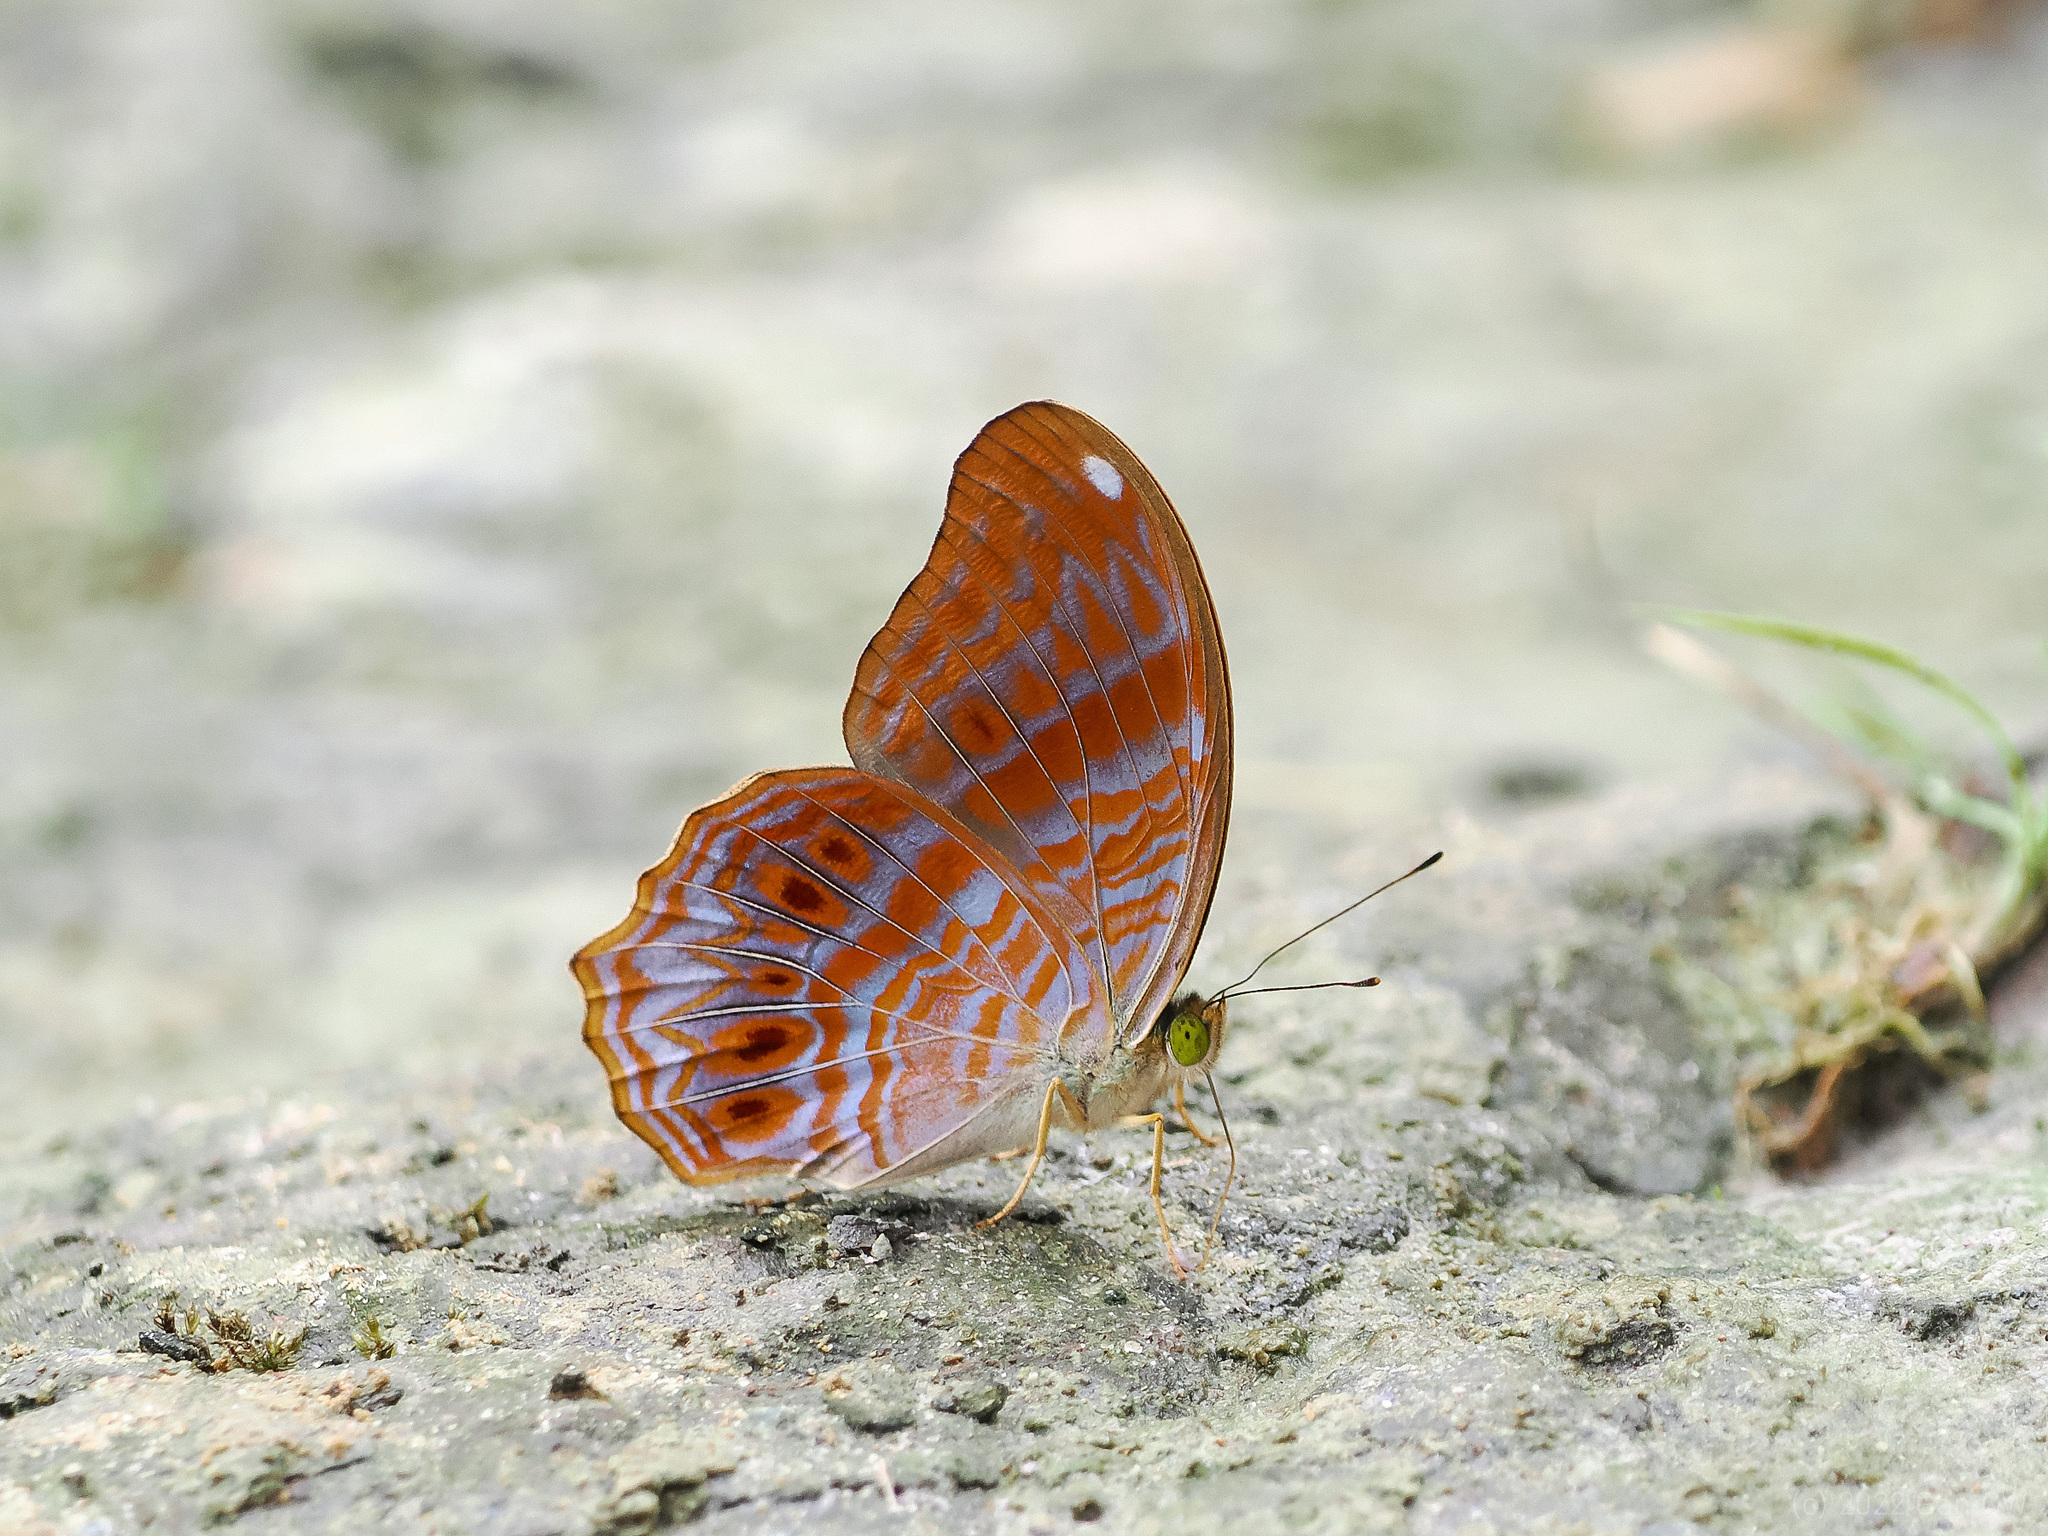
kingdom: Animalia
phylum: Arthropoda
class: Insecta
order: Lepidoptera
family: Nymphalidae
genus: Terinos
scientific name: Terinos terpander
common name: Royal assyrian
